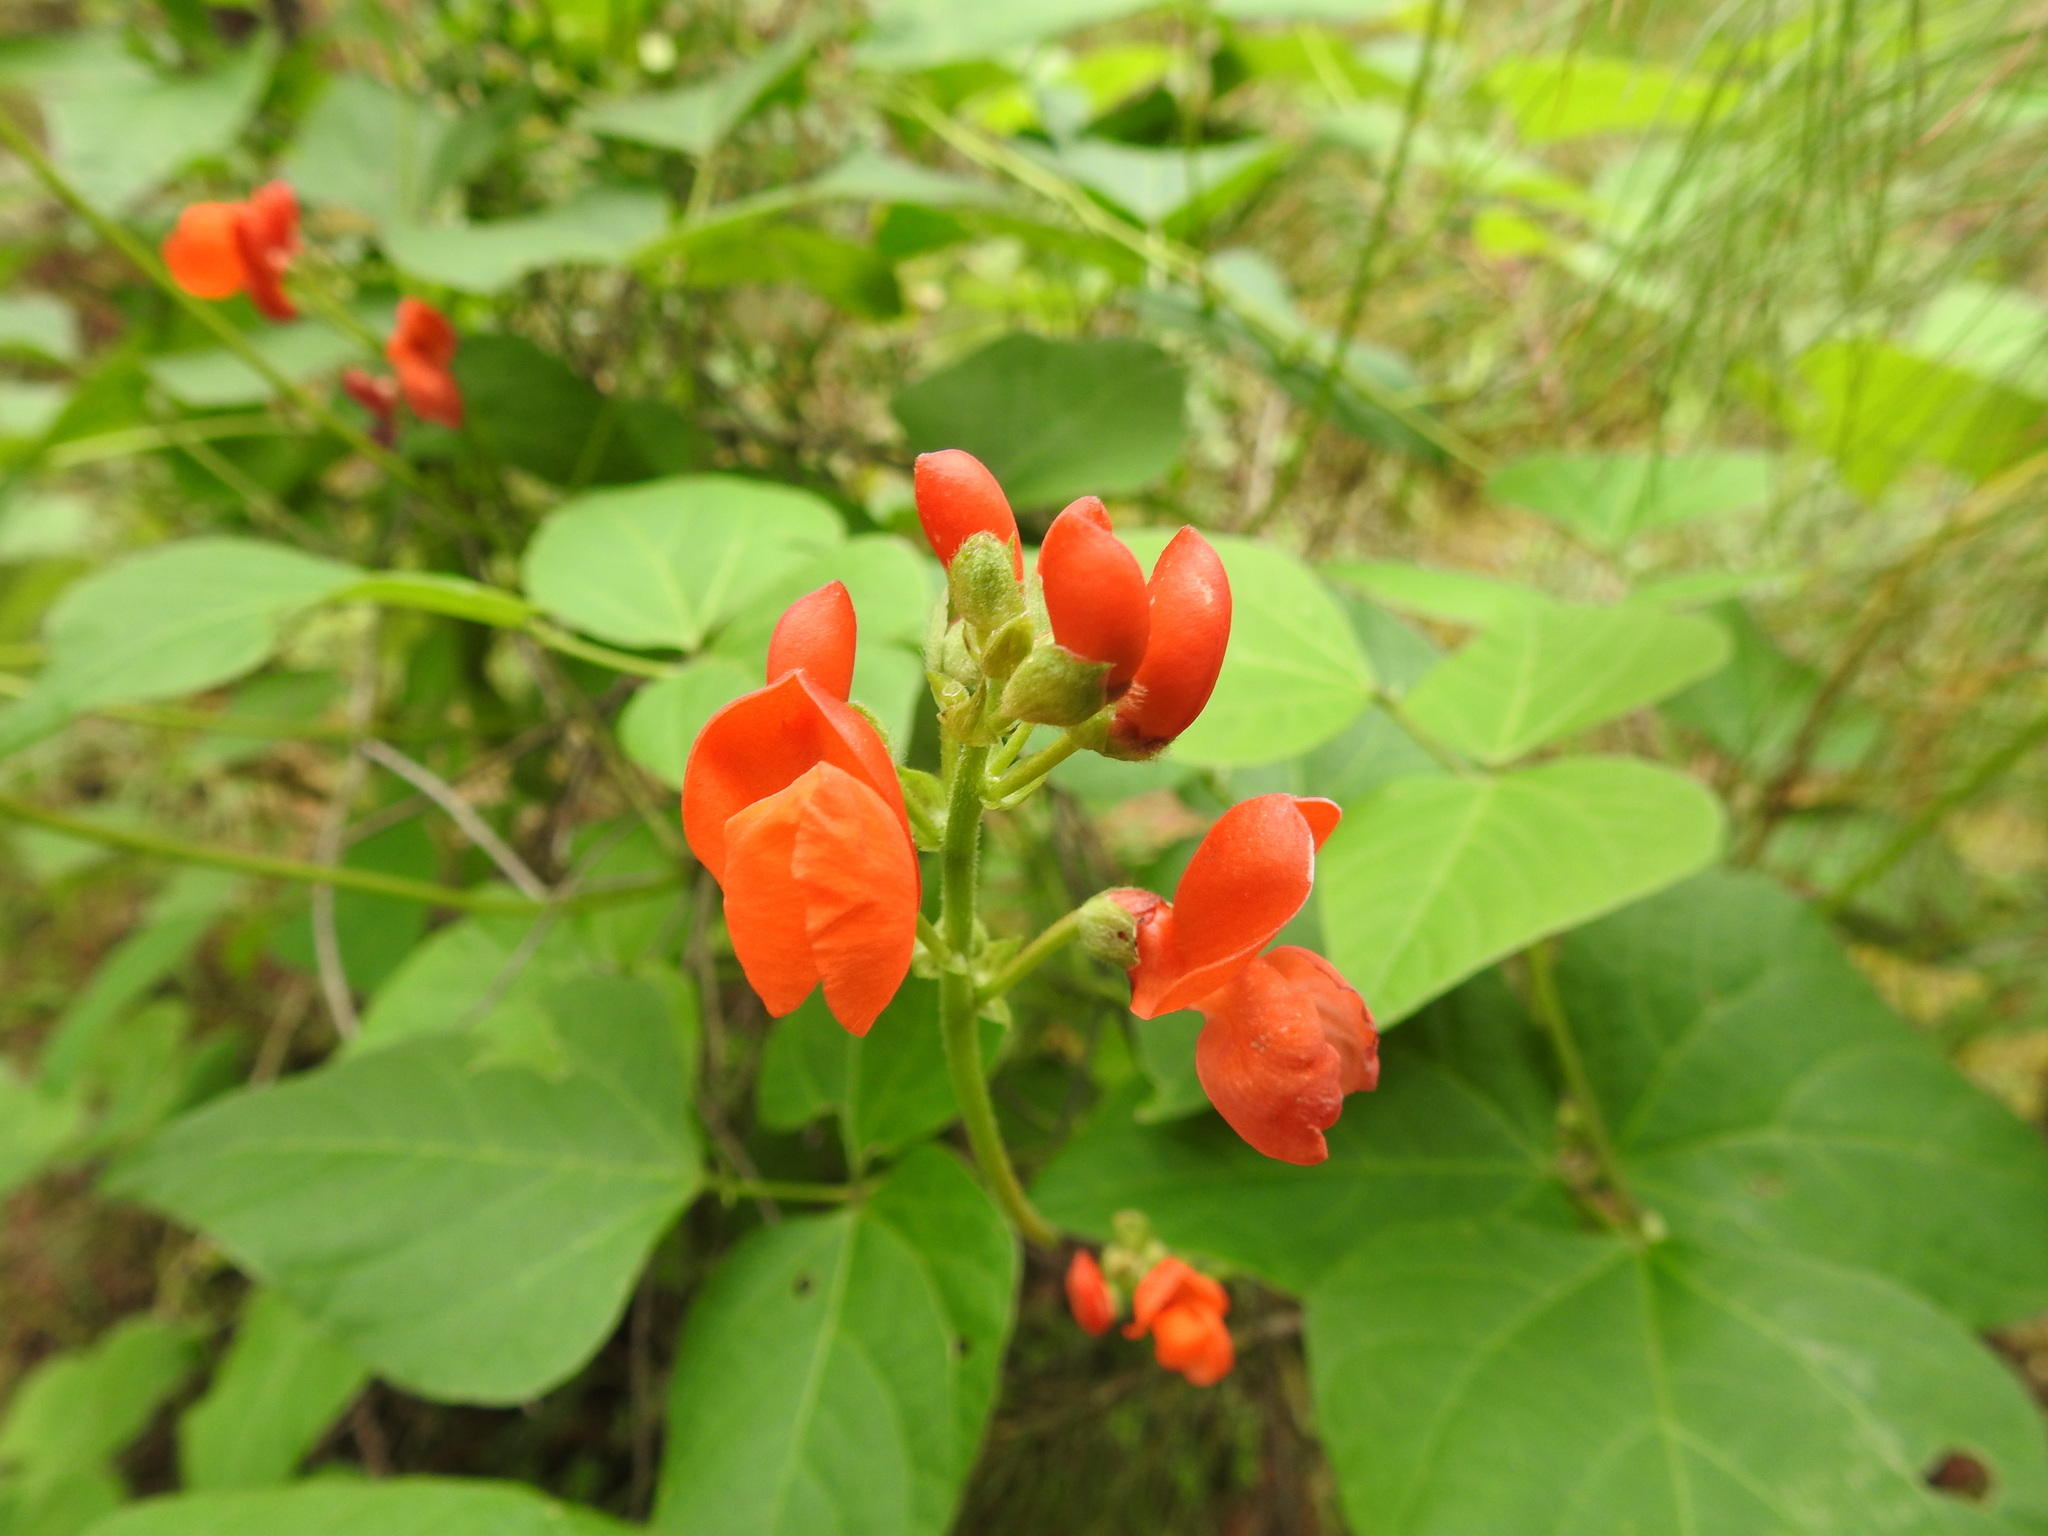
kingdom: Plantae
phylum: Tracheophyta
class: Magnoliopsida
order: Fabales
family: Fabaceae
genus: Phaseolus
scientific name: Phaseolus coccineus
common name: Runner bean
